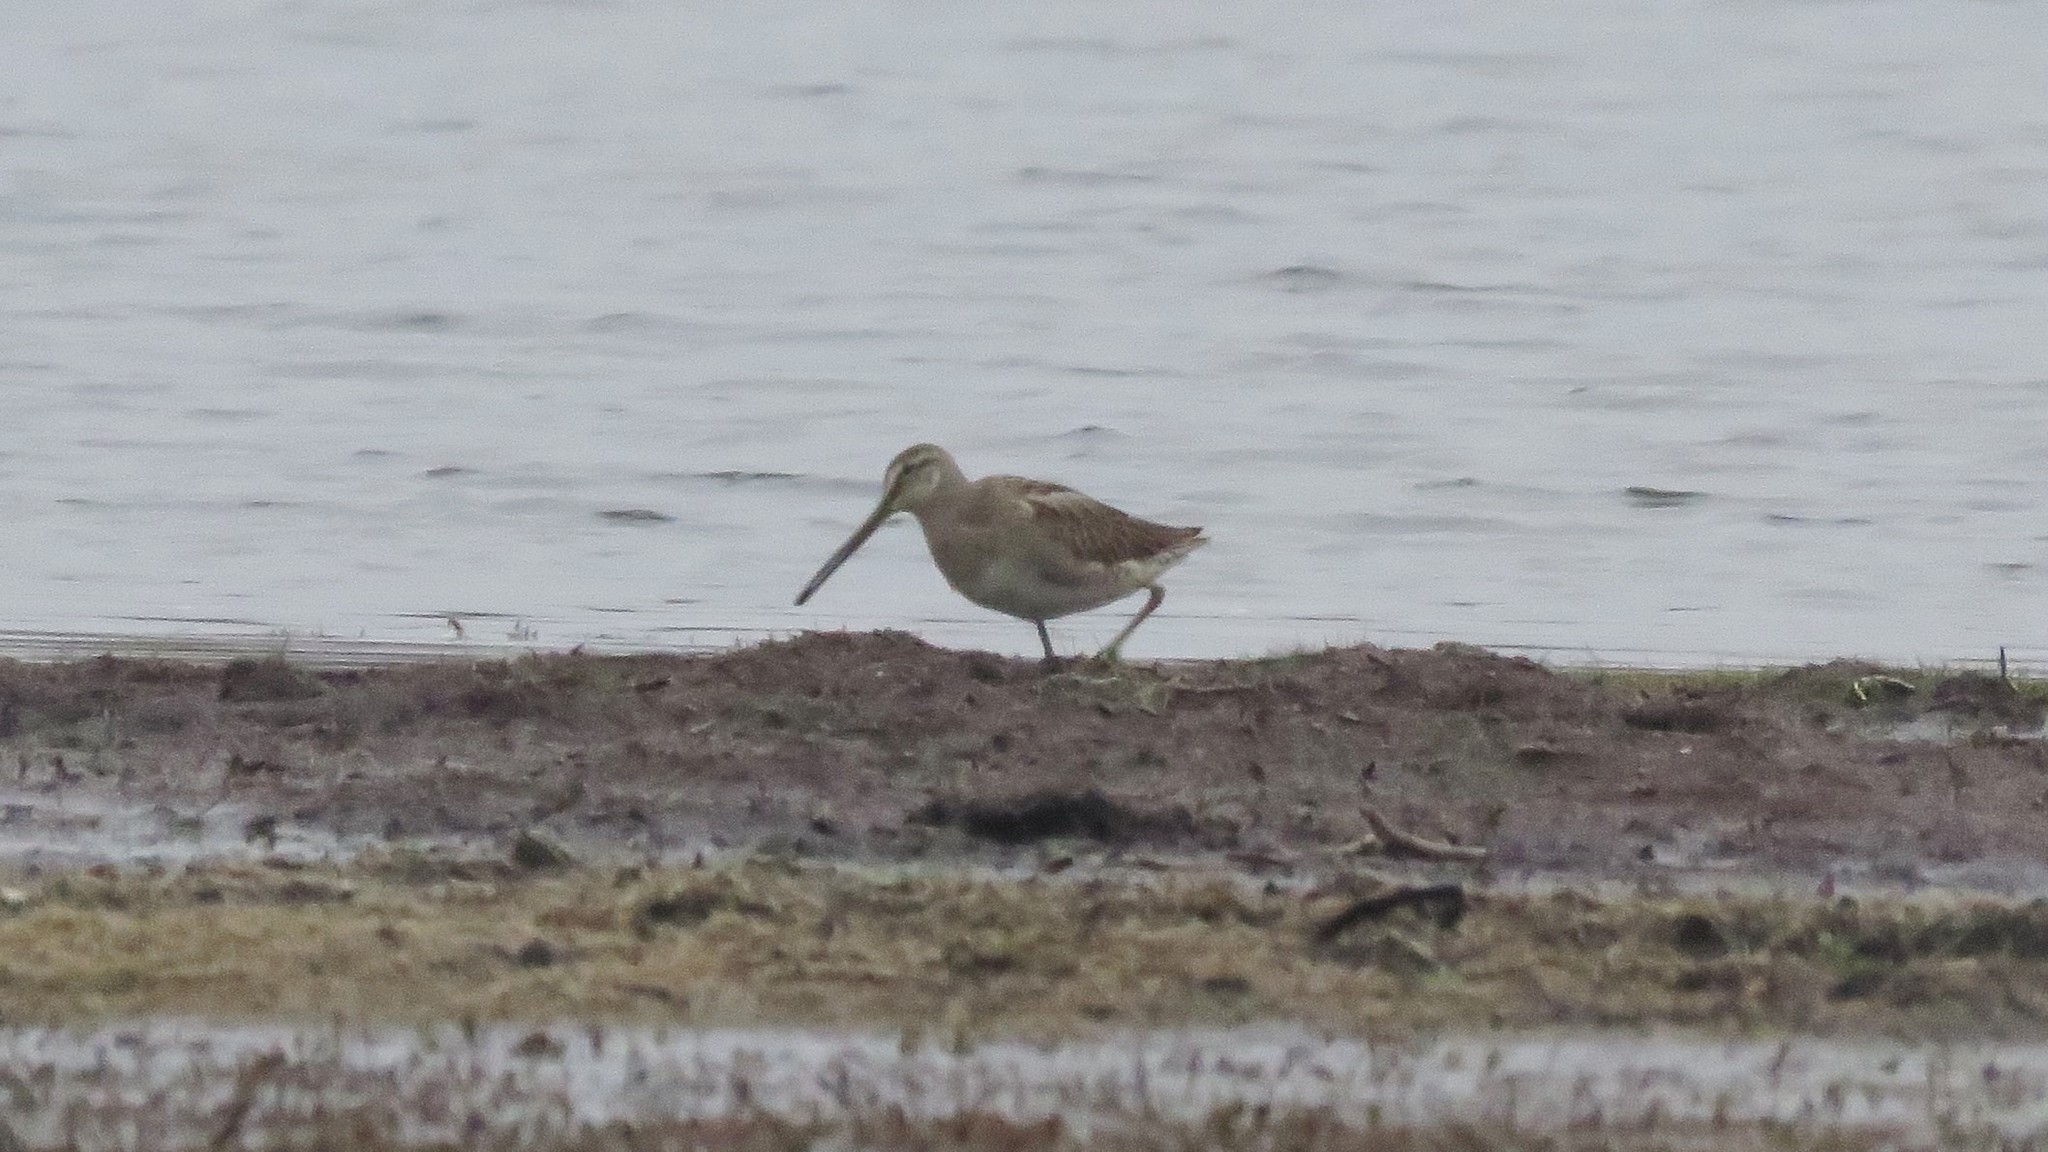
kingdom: Animalia
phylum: Chordata
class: Aves
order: Charadriiformes
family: Scolopacidae
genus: Limnodromus
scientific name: Limnodromus scolopaceus
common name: Long-billed dowitcher
